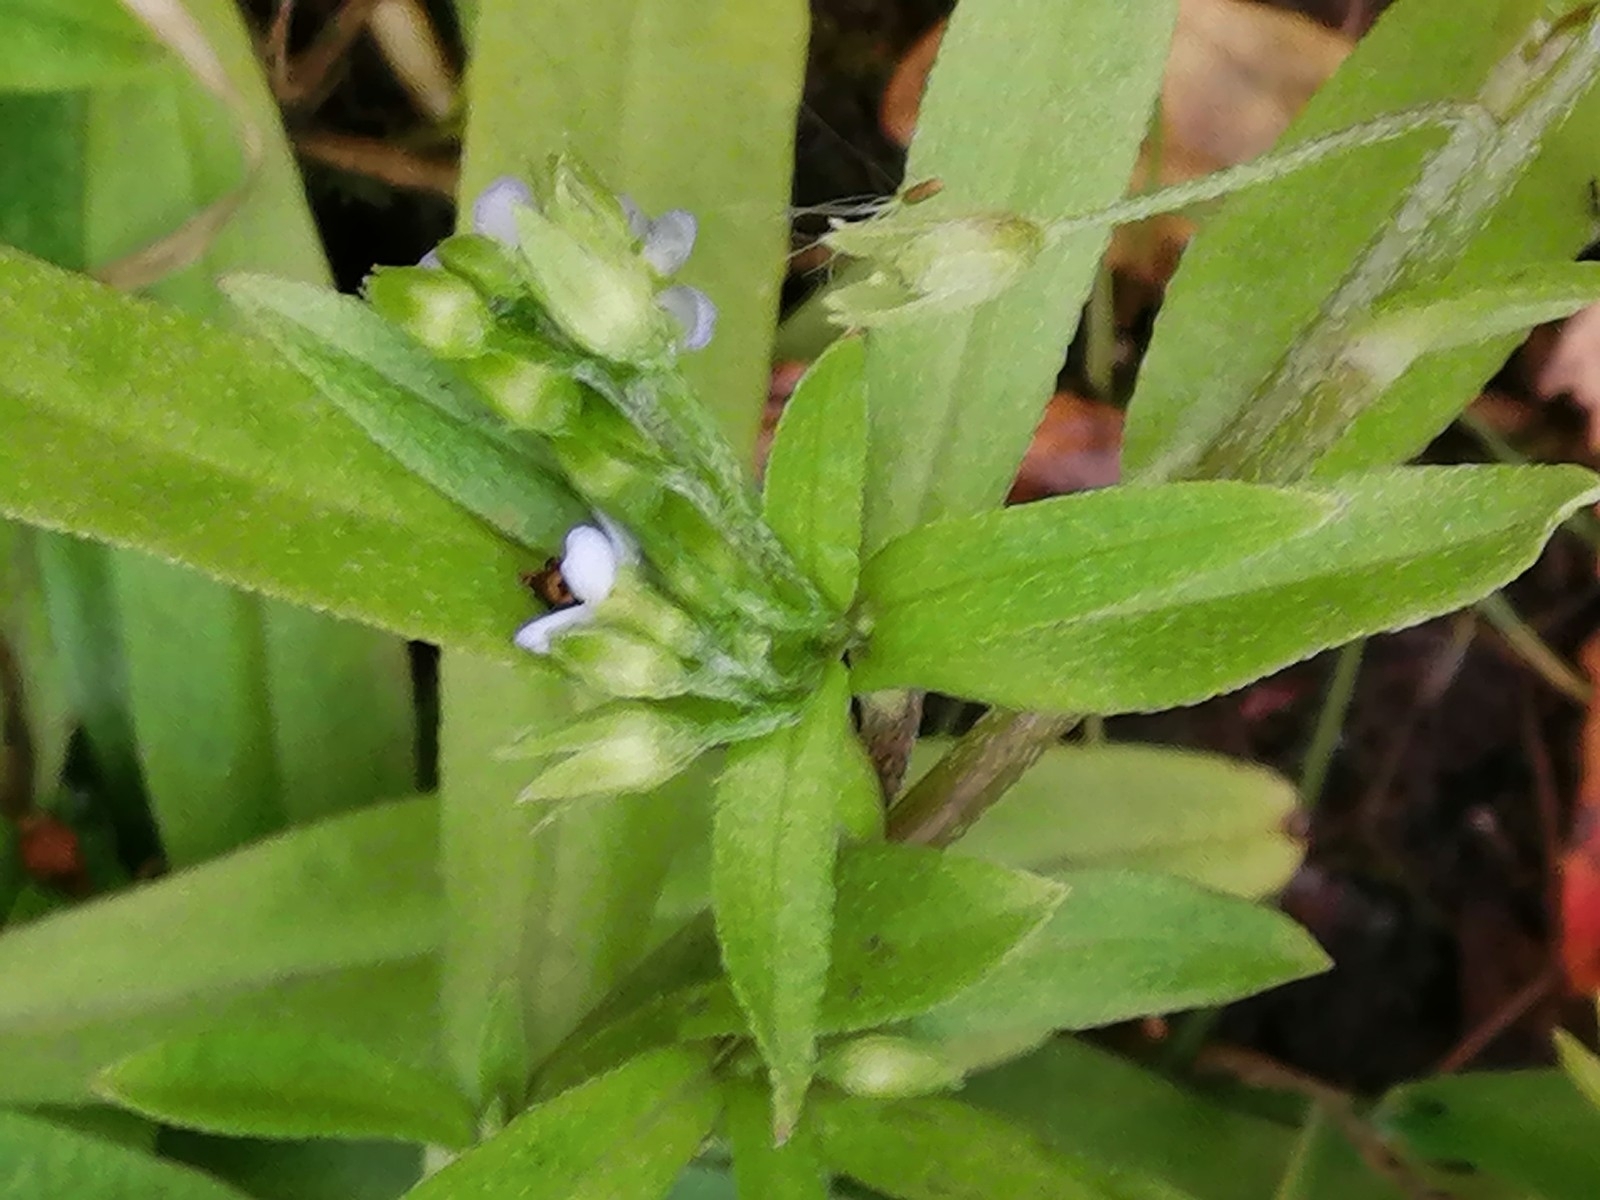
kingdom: Plantae
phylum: Tracheophyta
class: Magnoliopsida
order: Boraginales
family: Boraginaceae
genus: Myosotis
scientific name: Myosotis scorpioides
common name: Water forget-me-not
